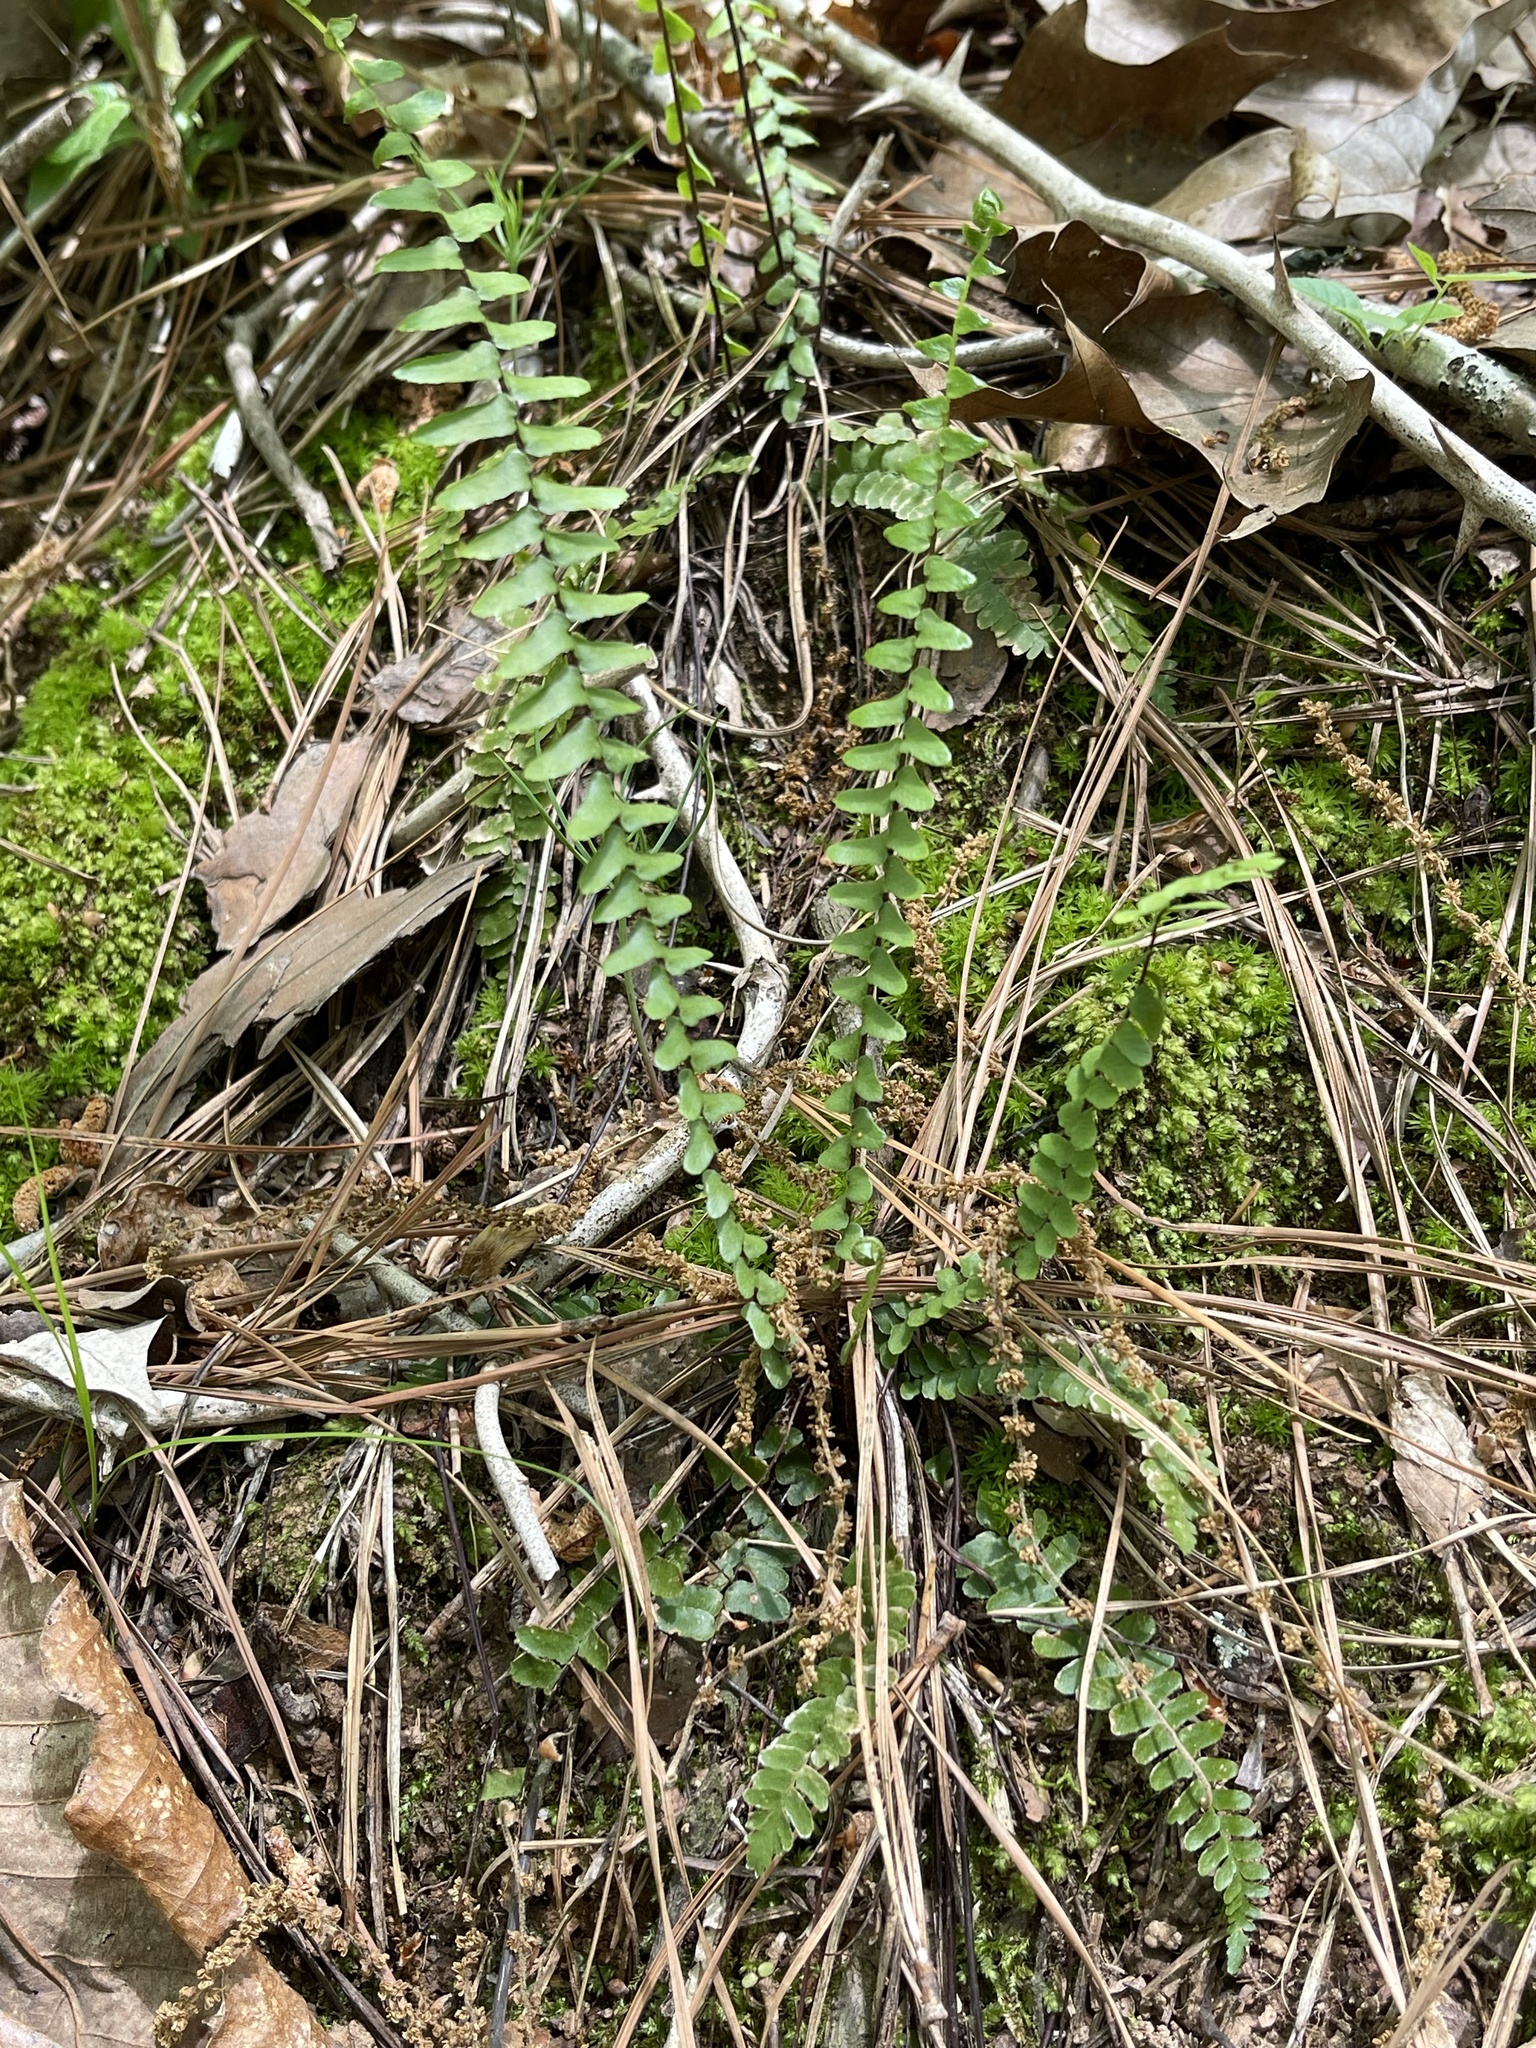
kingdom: Plantae
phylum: Tracheophyta
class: Polypodiopsida
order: Polypodiales
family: Aspleniaceae
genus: Asplenium
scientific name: Asplenium platyneuron
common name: Ebony spleenwort
